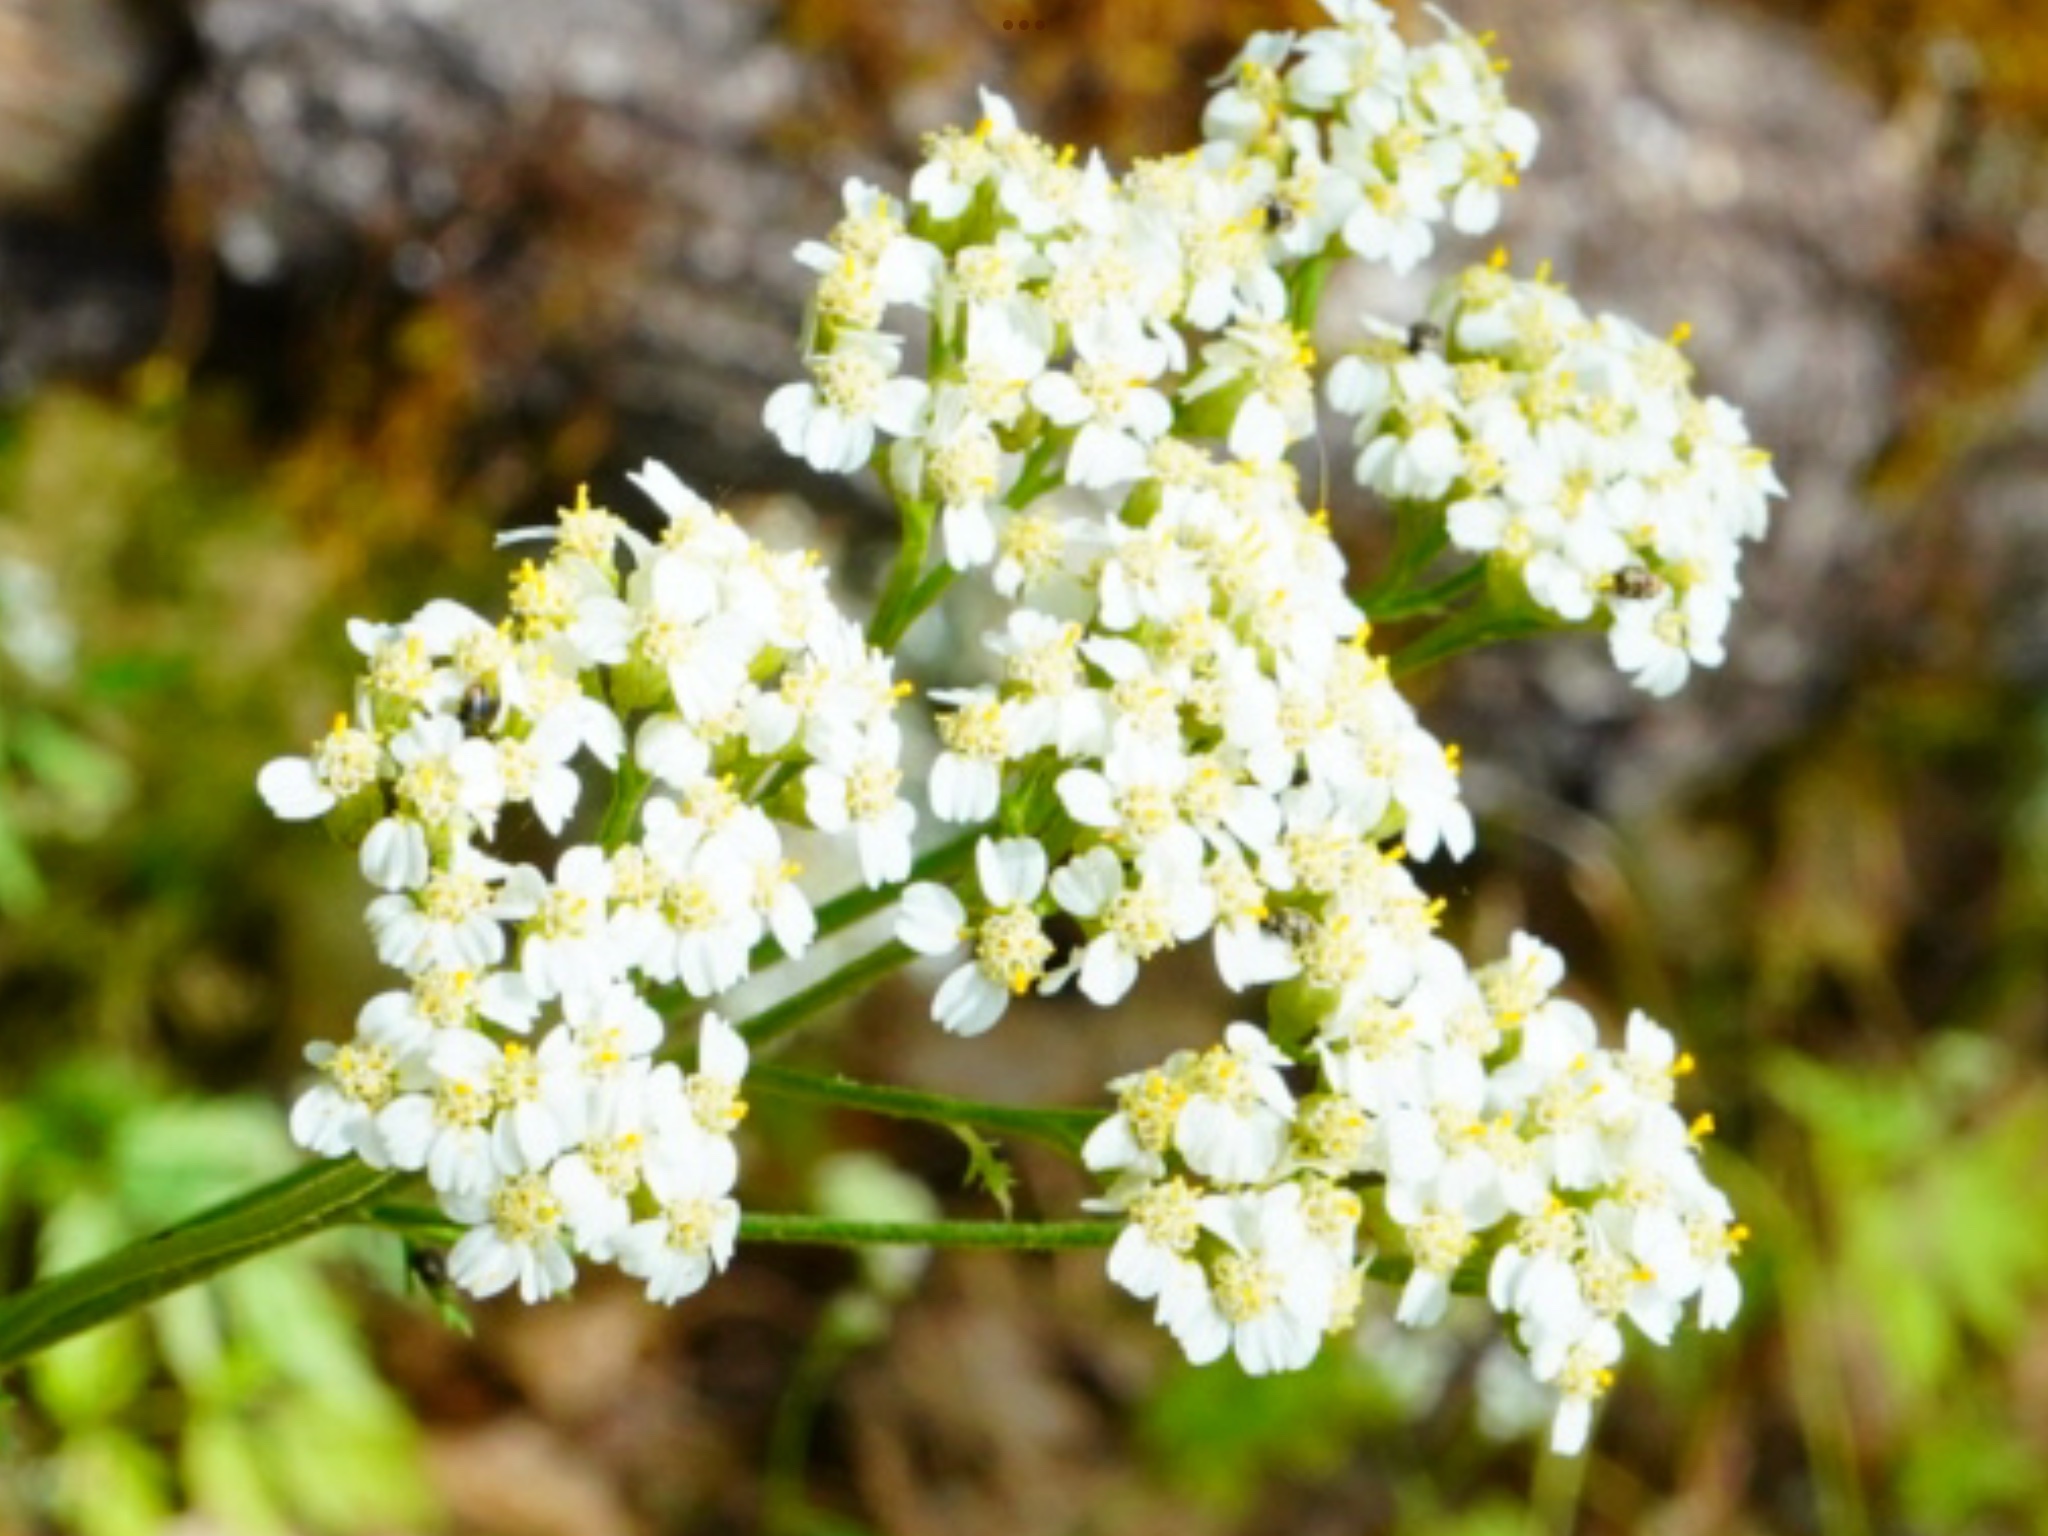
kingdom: Plantae
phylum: Tracheophyta
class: Magnoliopsida
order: Asterales
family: Asteraceae
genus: Achillea
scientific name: Achillea millefolium
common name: Yarrow
